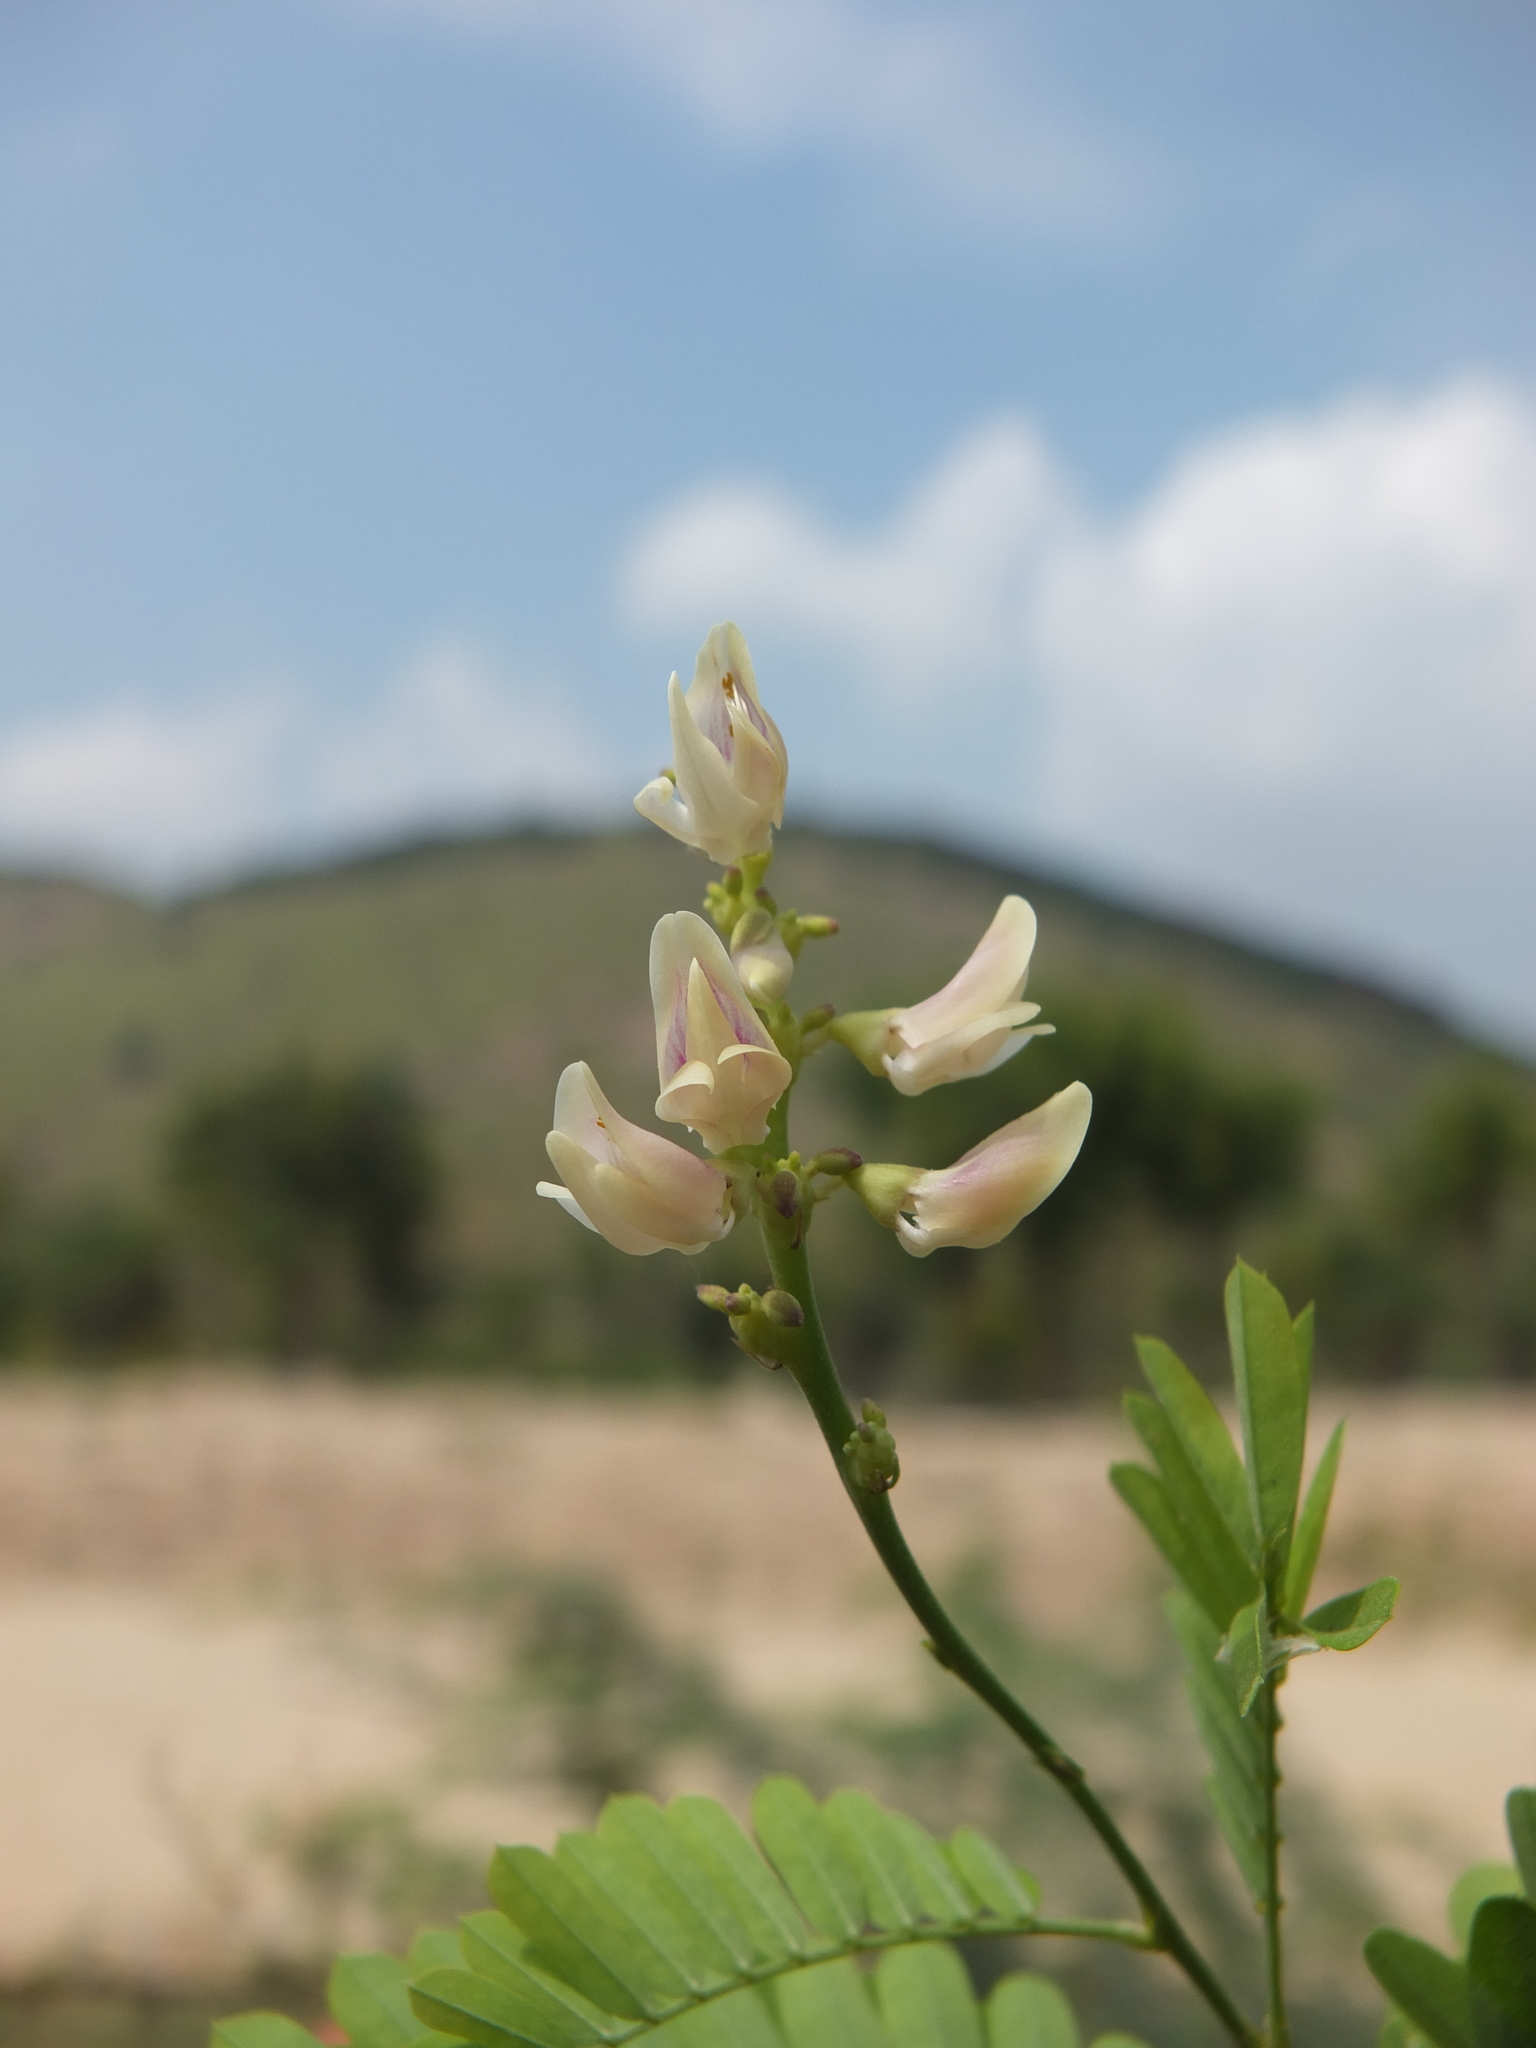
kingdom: Plantae
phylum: Tracheophyta
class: Magnoliopsida
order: Fabales
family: Fabaceae
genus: Abrus
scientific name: Abrus precatorius
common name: Rosarypea
